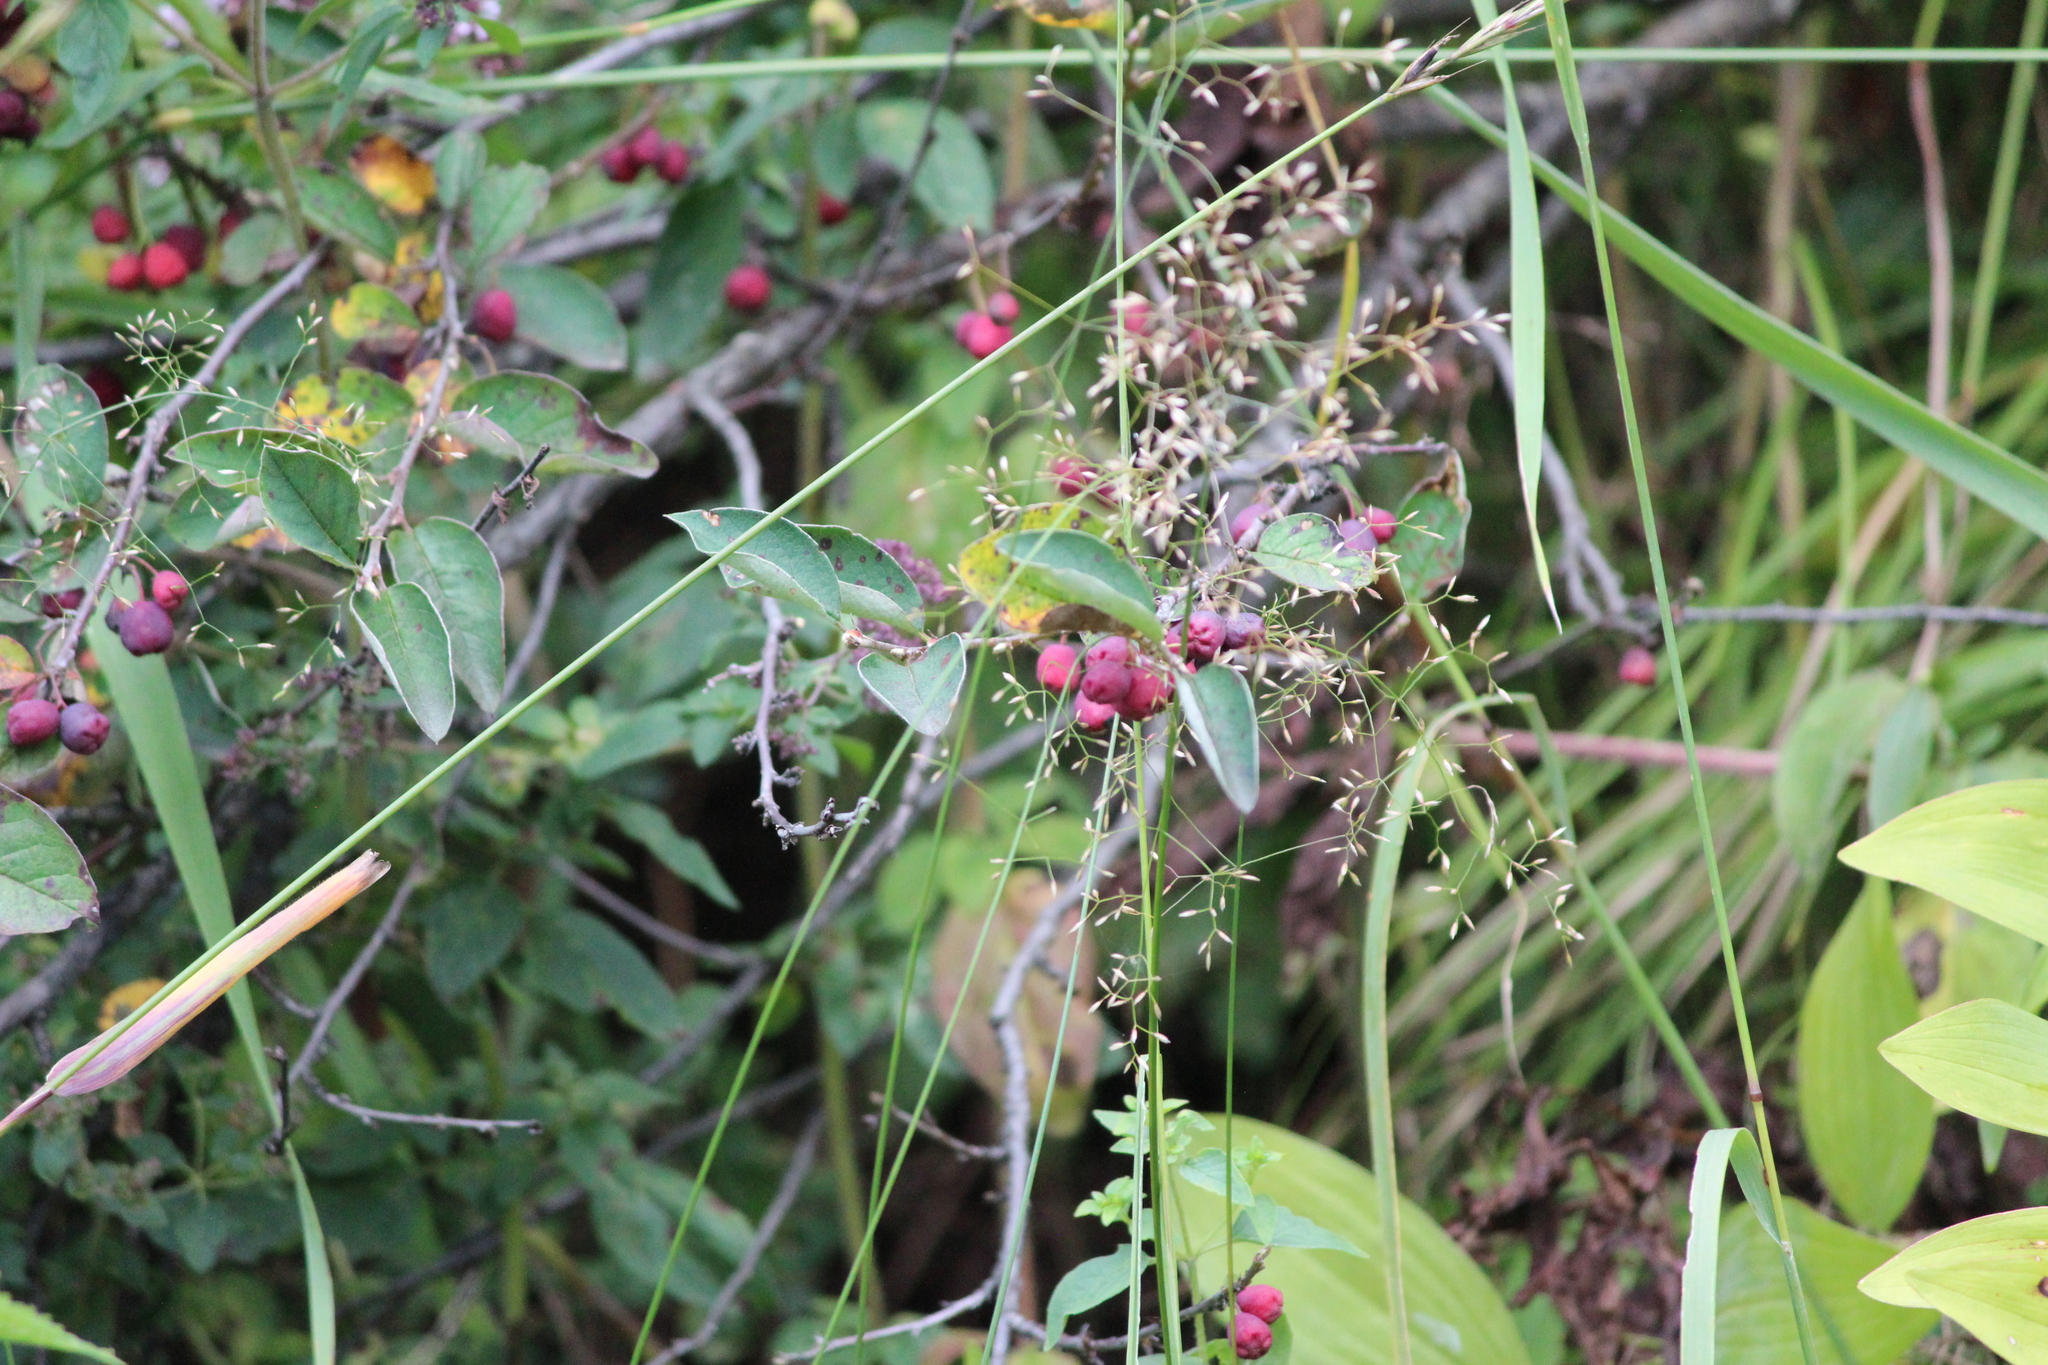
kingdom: Plantae
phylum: Tracheophyta
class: Magnoliopsida
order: Rosales
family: Rosaceae
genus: Cotoneaster
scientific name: Cotoneaster melanocarpus
